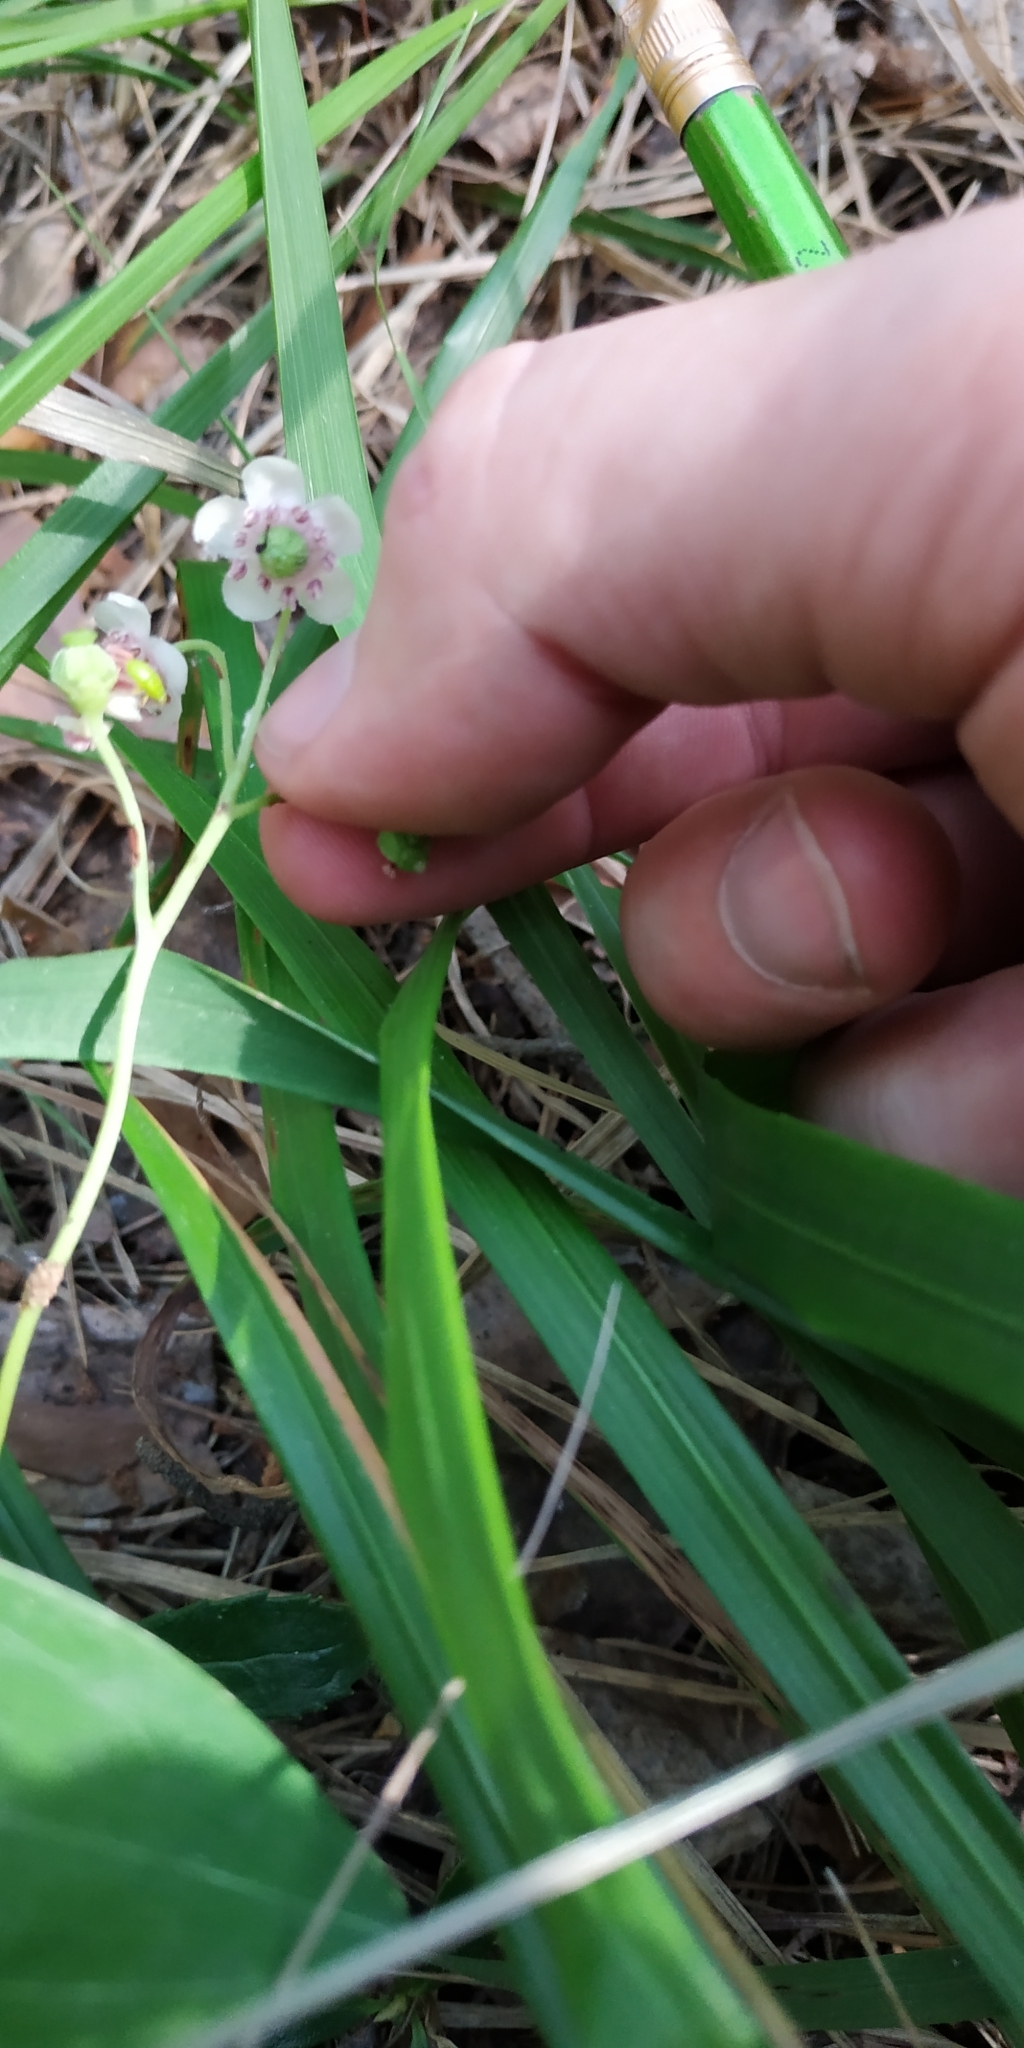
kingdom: Plantae
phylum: Tracheophyta
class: Magnoliopsida
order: Ericales
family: Ericaceae
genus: Chimaphila
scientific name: Chimaphila umbellata
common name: Pipsissewa
